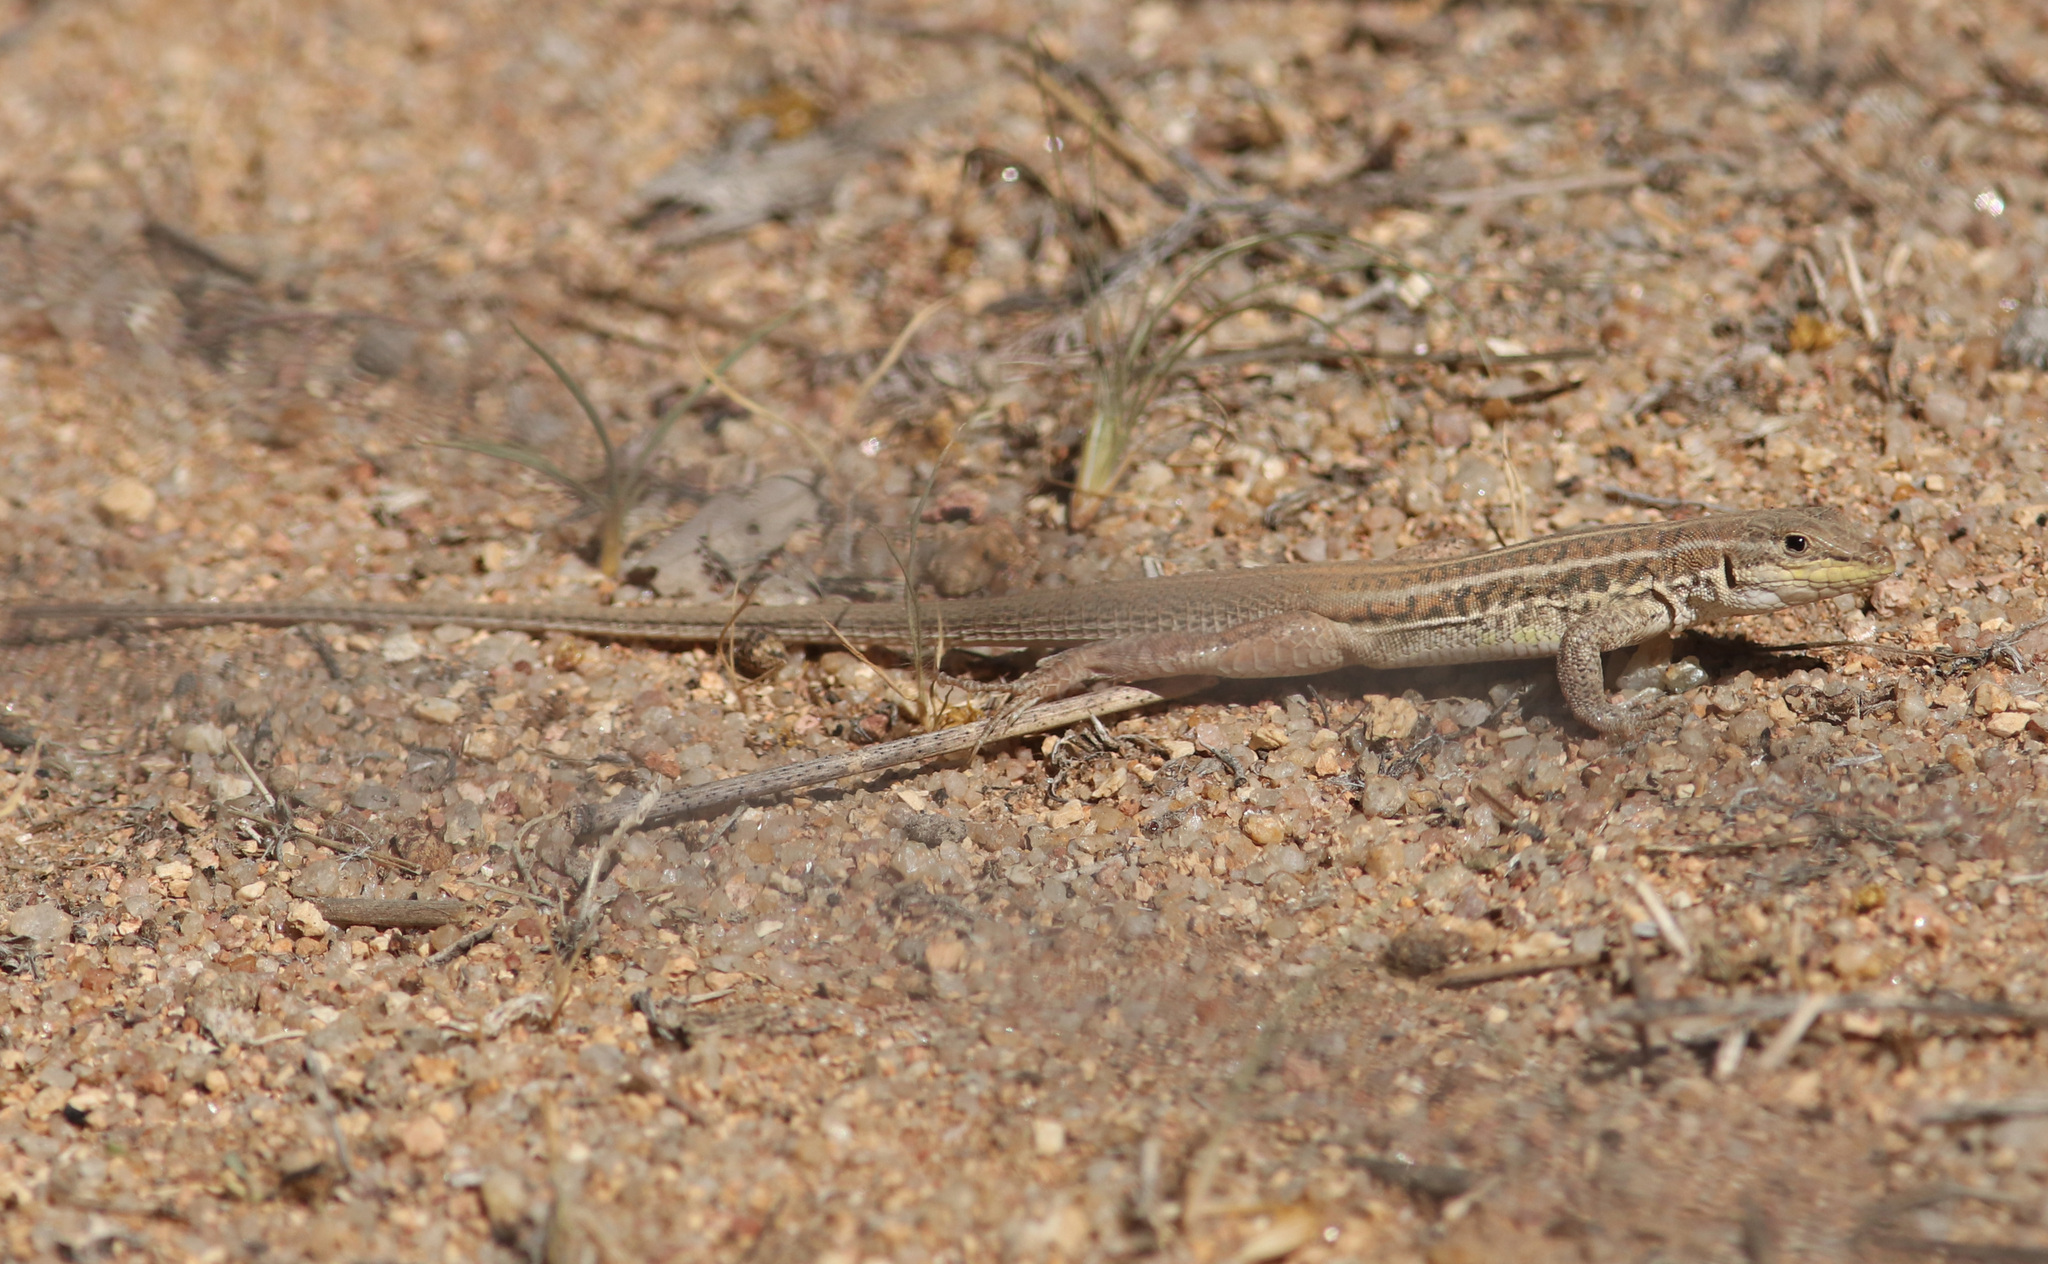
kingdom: Animalia
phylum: Chordata
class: Squamata
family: Lacertidae
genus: Heliobolus
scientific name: Heliobolus lugubris
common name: Bushveld lizard
